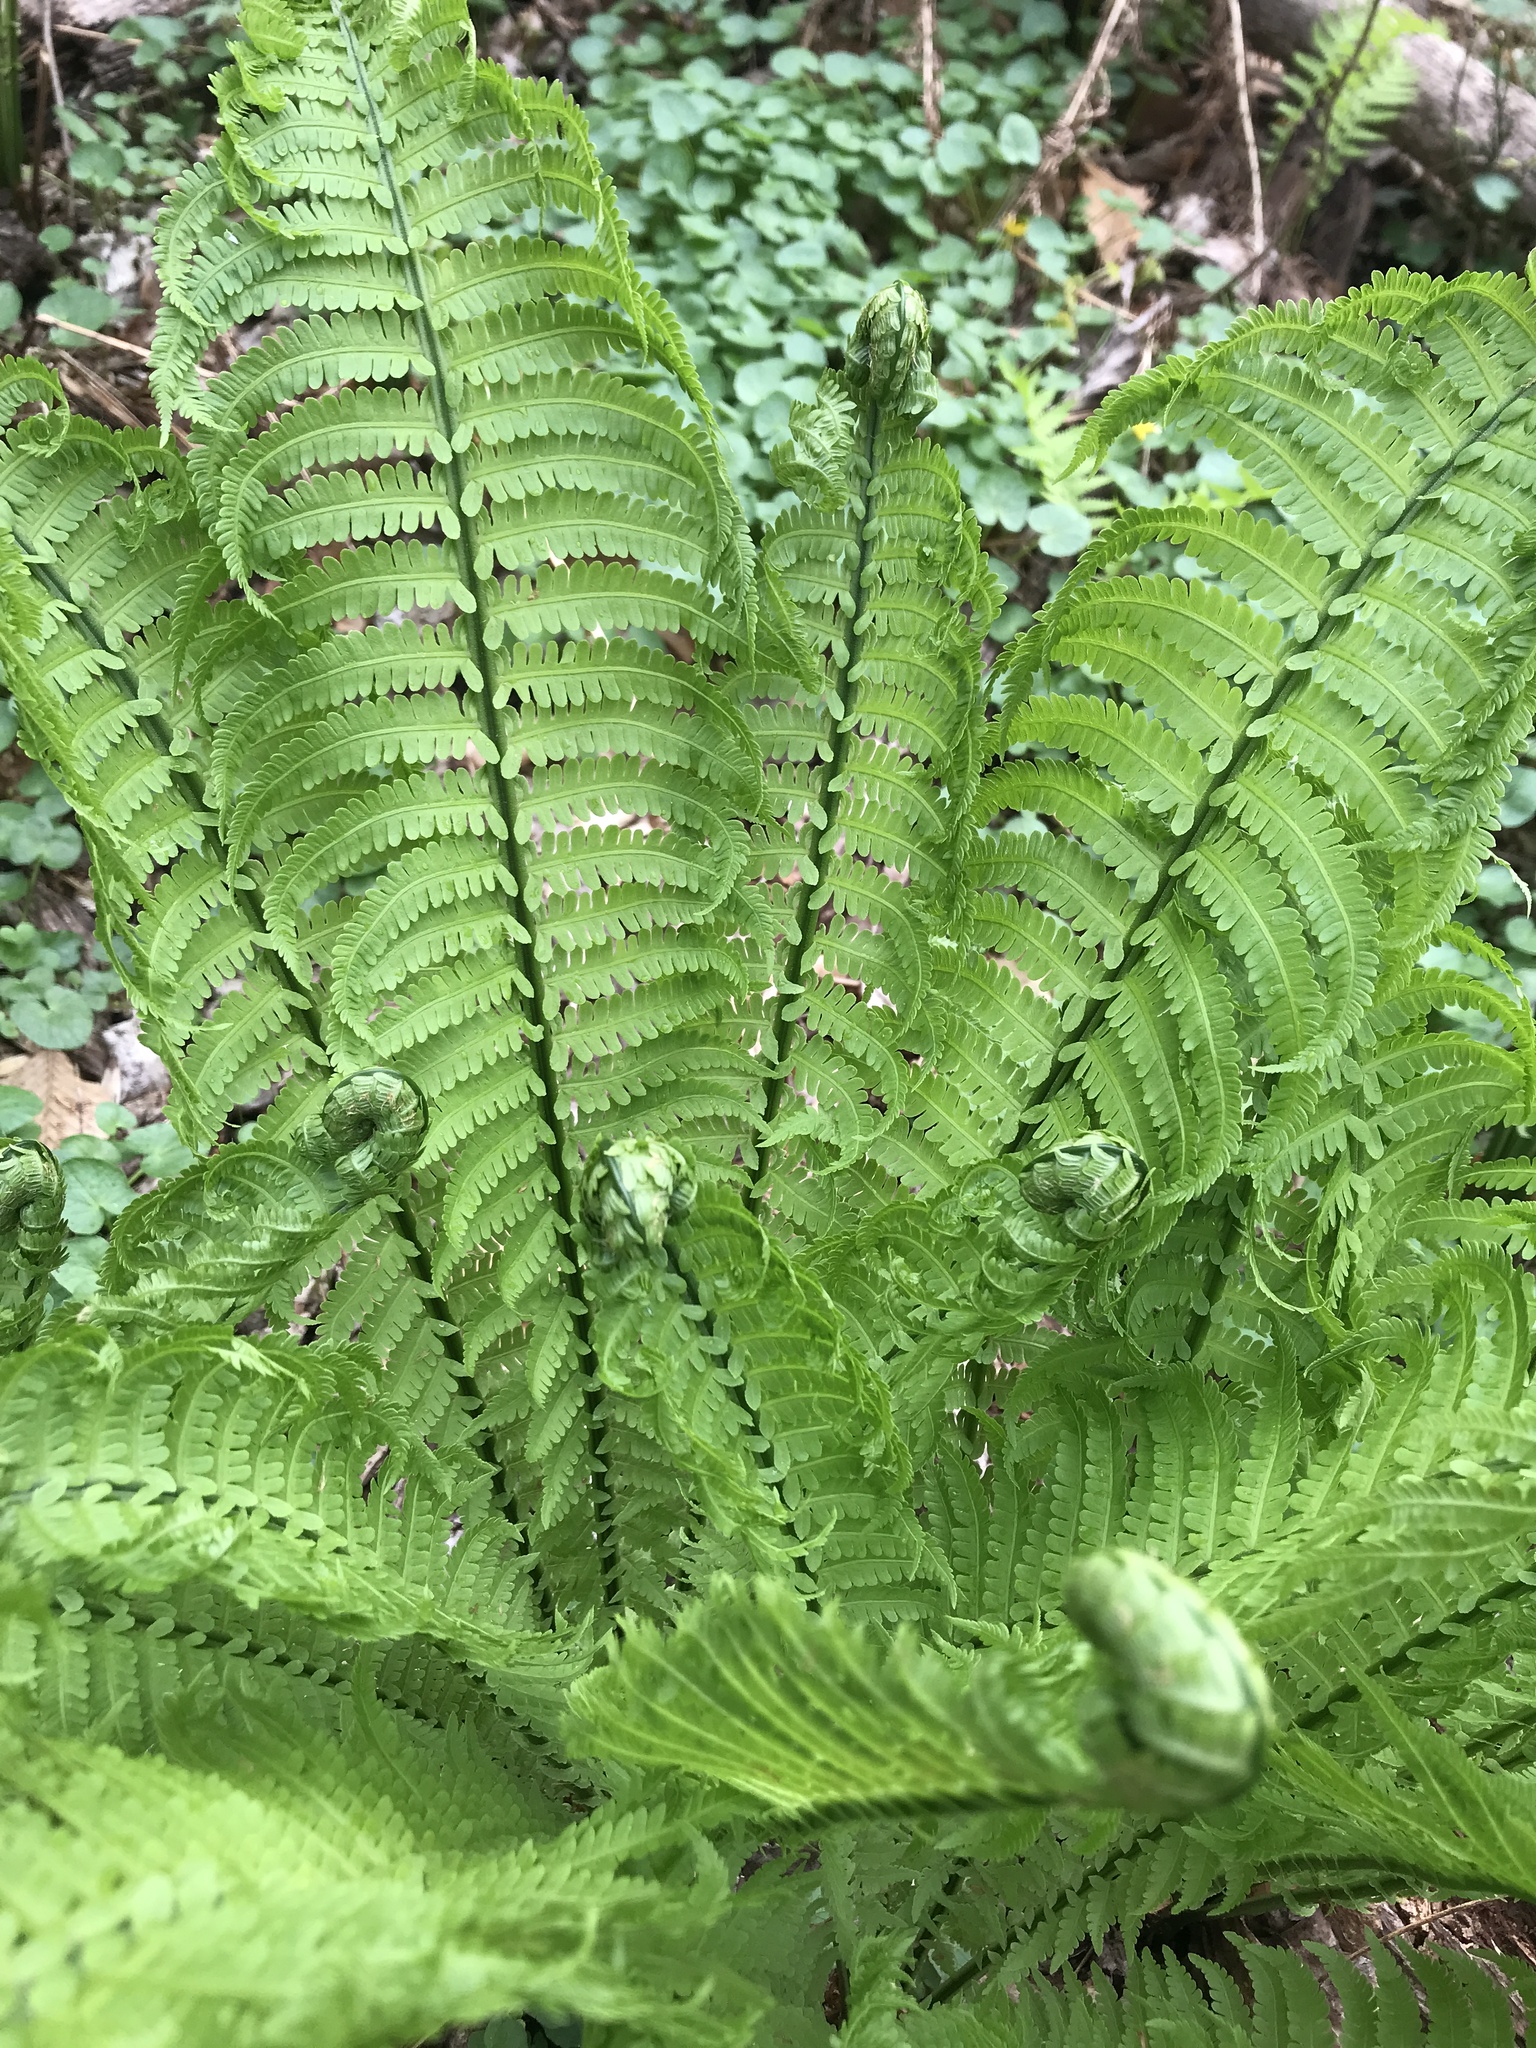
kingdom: Plantae
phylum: Tracheophyta
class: Polypodiopsida
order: Polypodiales
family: Onocleaceae
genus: Matteuccia
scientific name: Matteuccia struthiopteris
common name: Ostrich fern
